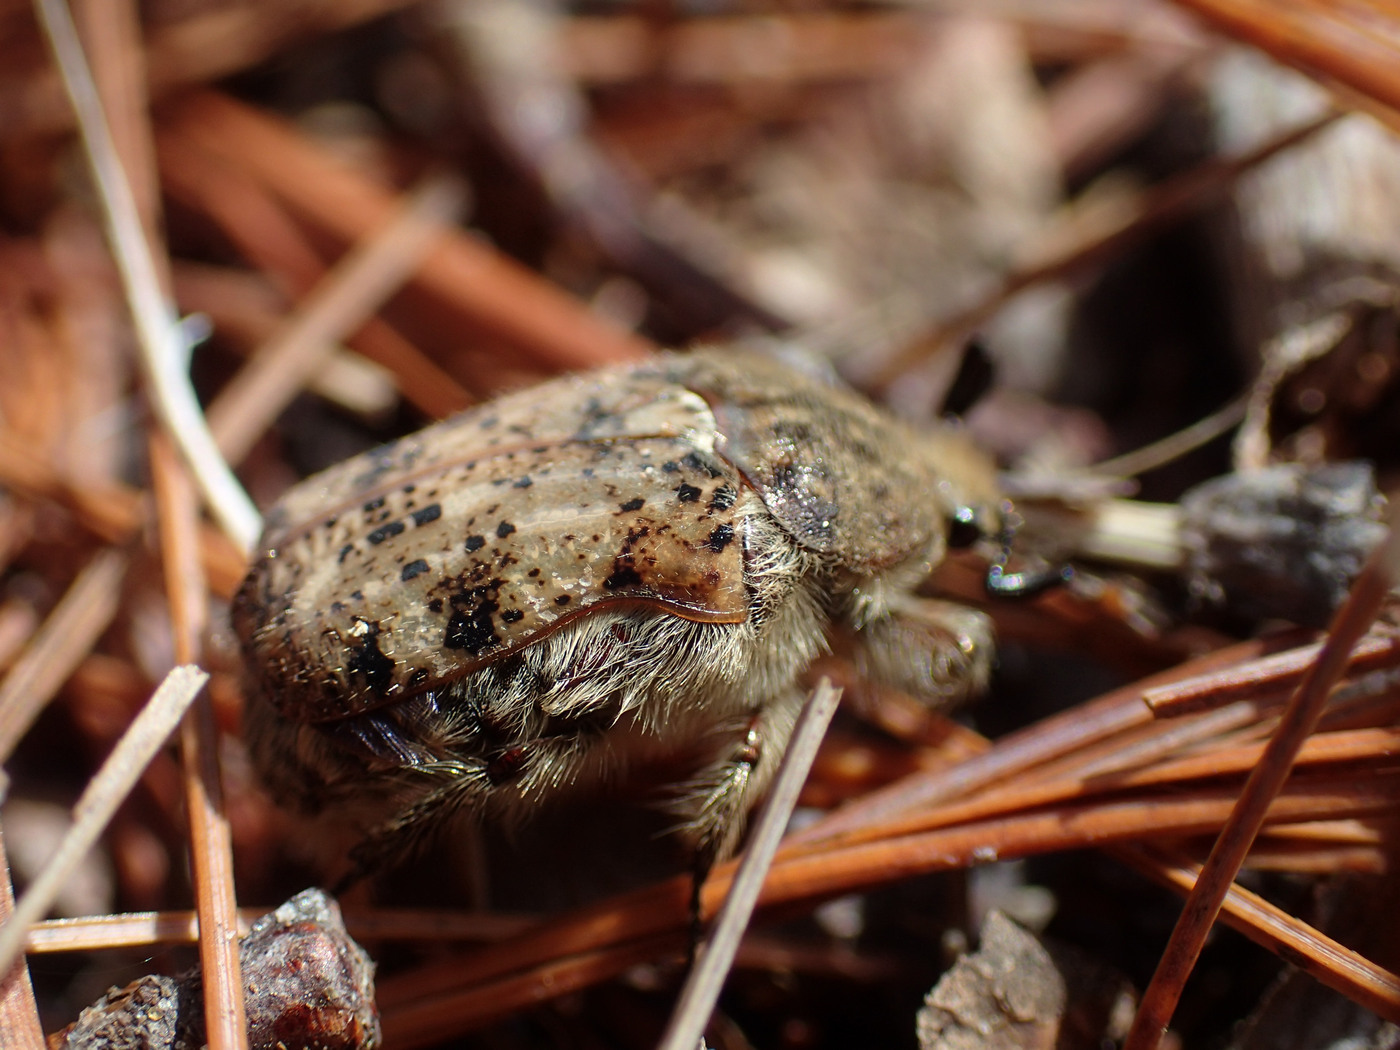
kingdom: Animalia
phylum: Arthropoda
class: Insecta
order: Coleoptera
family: Scarabaeidae
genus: Euphoria
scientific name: Euphoria inda
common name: Bumble flower beetle
